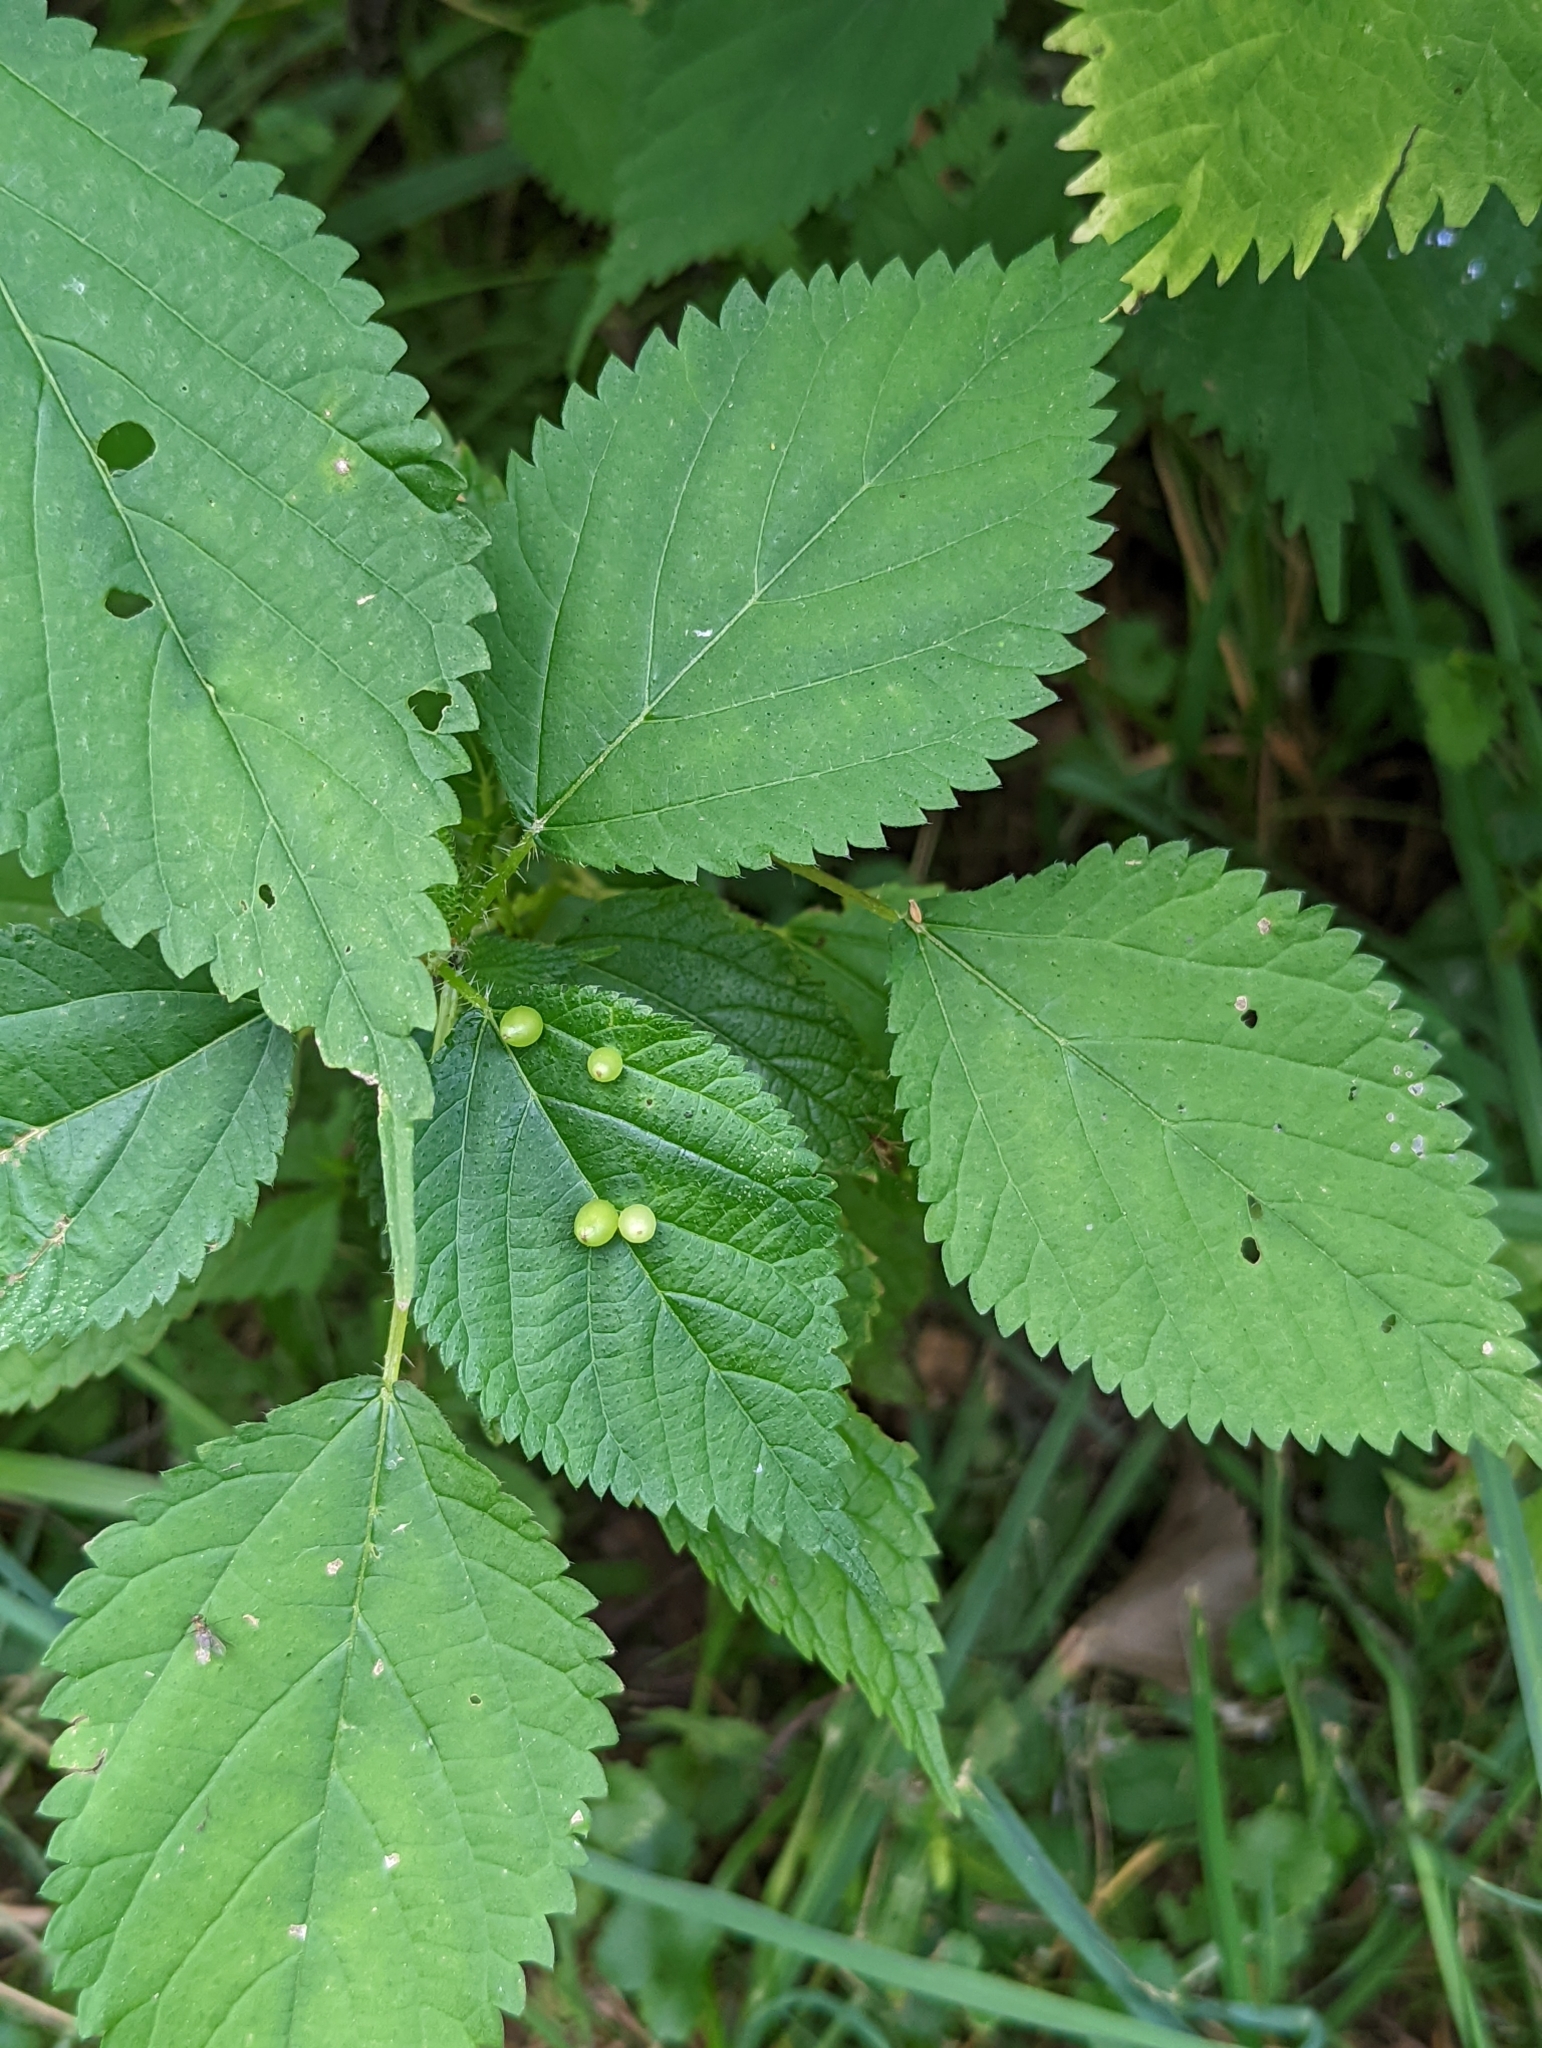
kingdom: Animalia
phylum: Arthropoda
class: Insecta
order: Diptera
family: Cecidomyiidae
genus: Dasineura
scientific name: Dasineura investita
